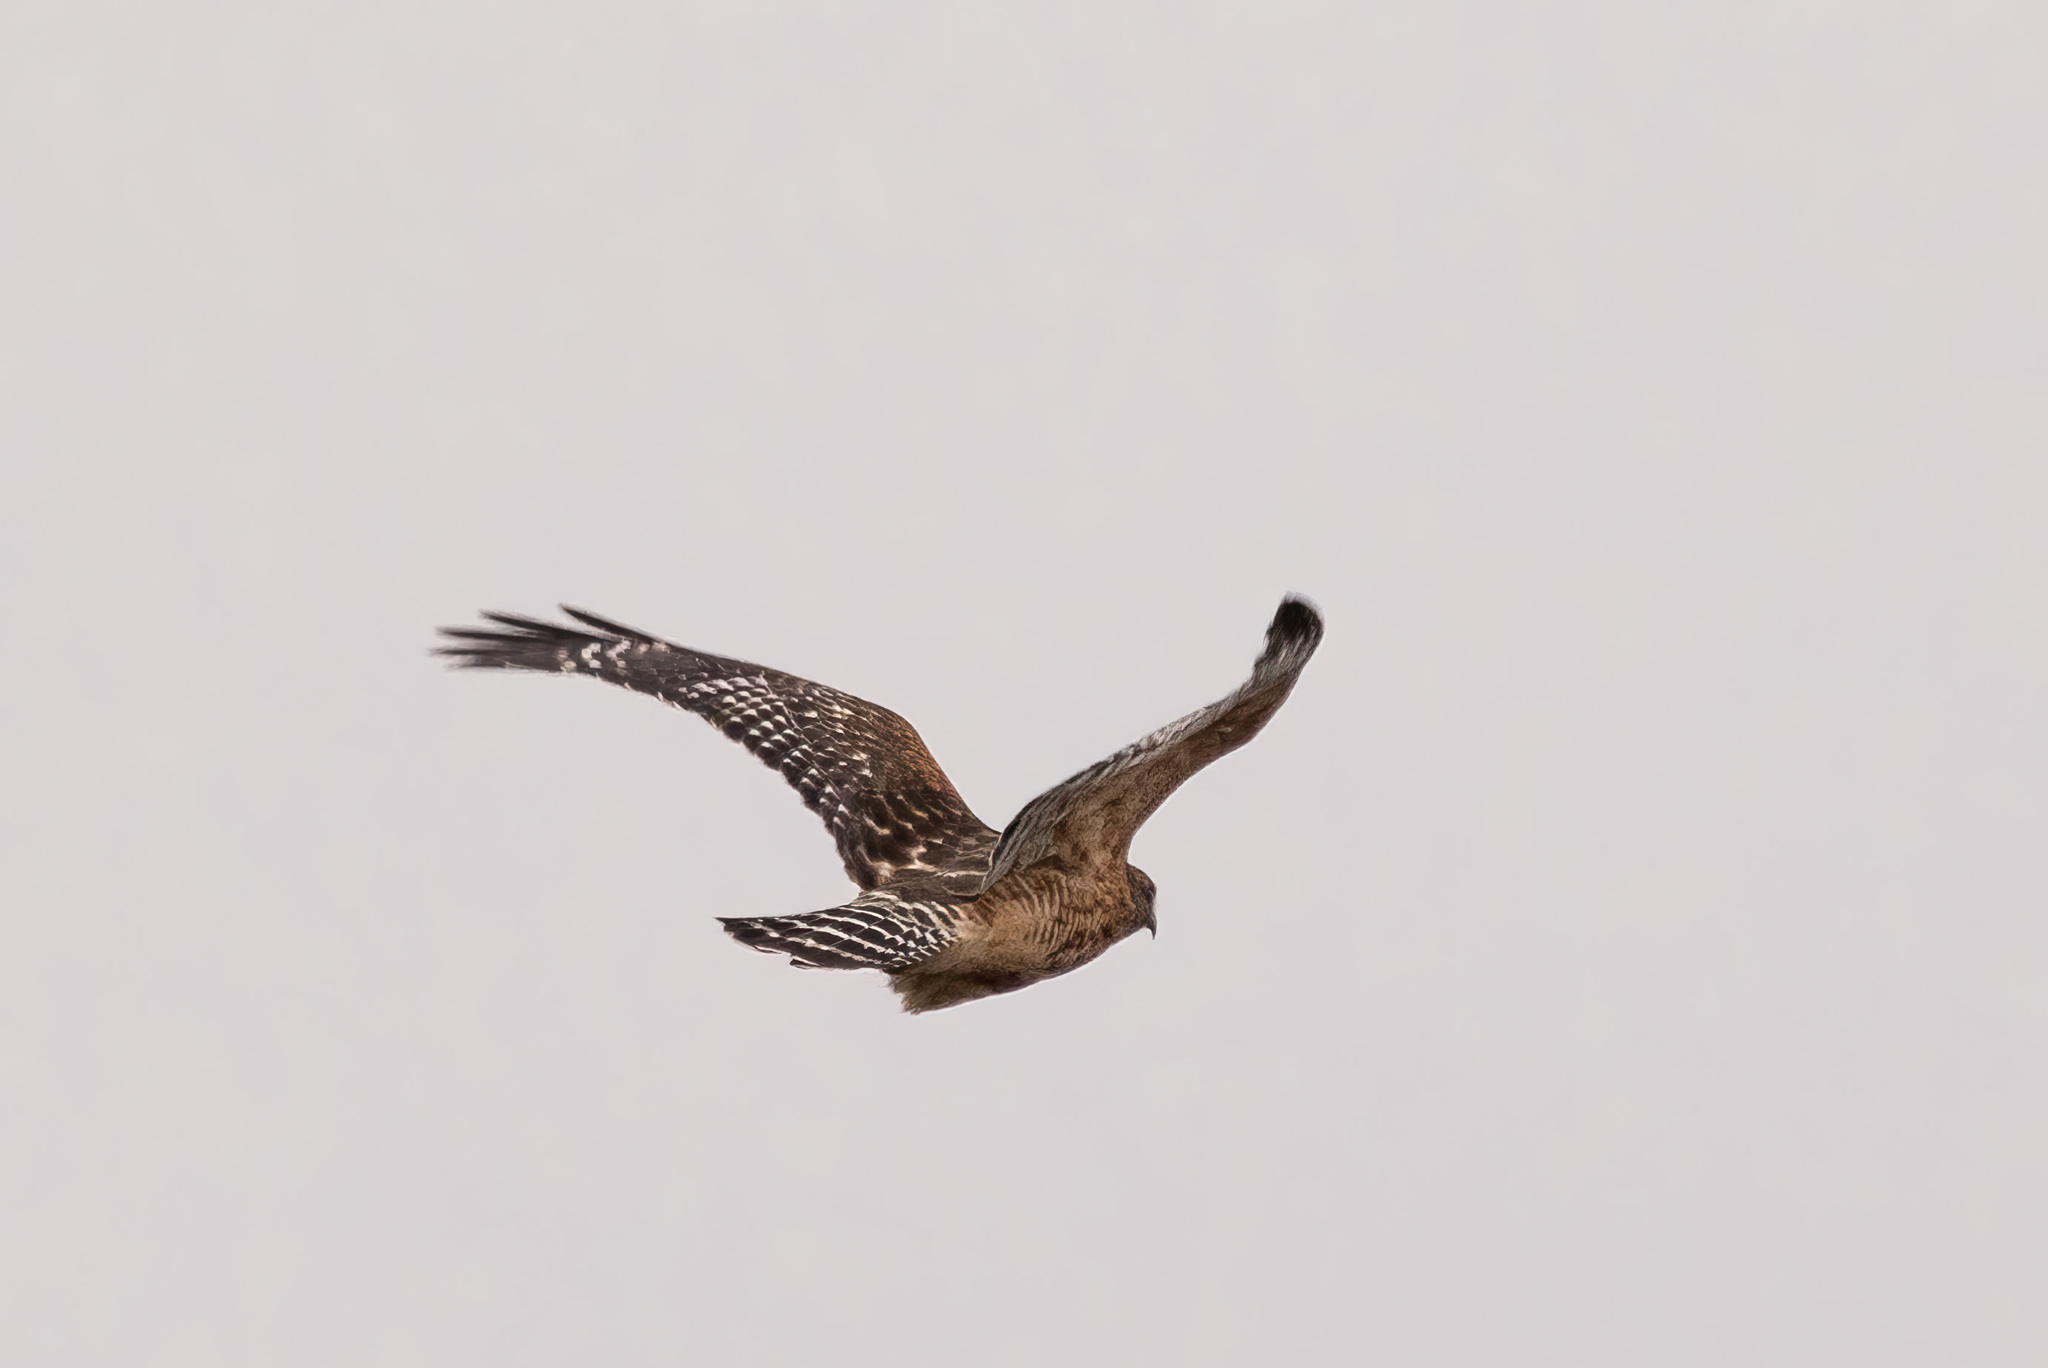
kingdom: Animalia
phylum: Chordata
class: Aves
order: Accipitriformes
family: Accipitridae
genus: Buteo
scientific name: Buteo lineatus
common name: Red-shouldered hawk
